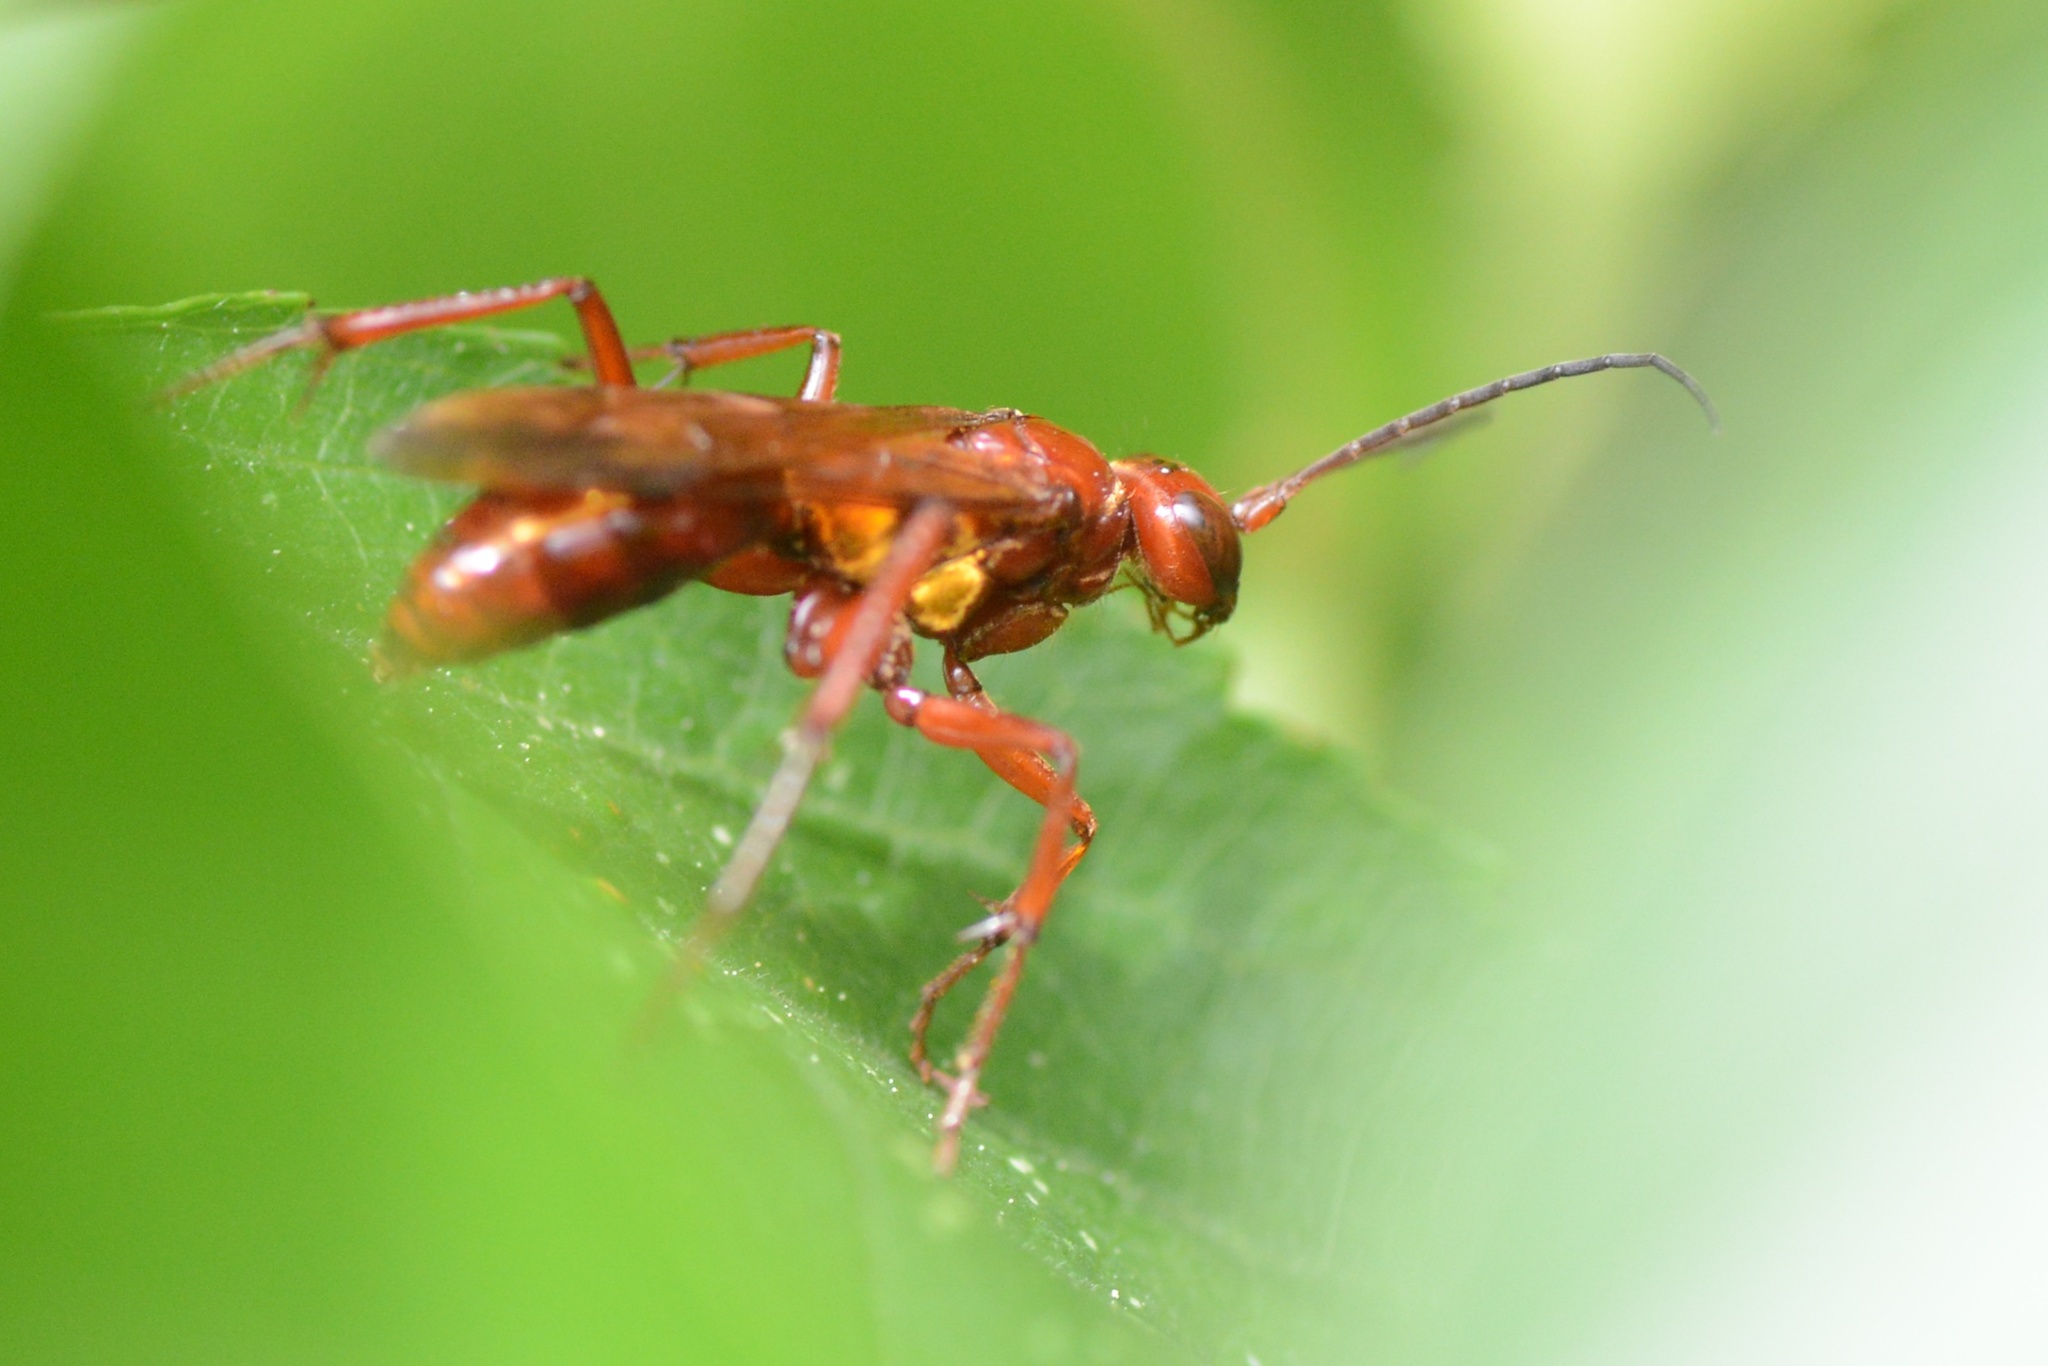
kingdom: Animalia
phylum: Arthropoda
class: Insecta
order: Hymenoptera
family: Pompilidae
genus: Sphictostethus
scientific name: Sphictostethus nitidus
